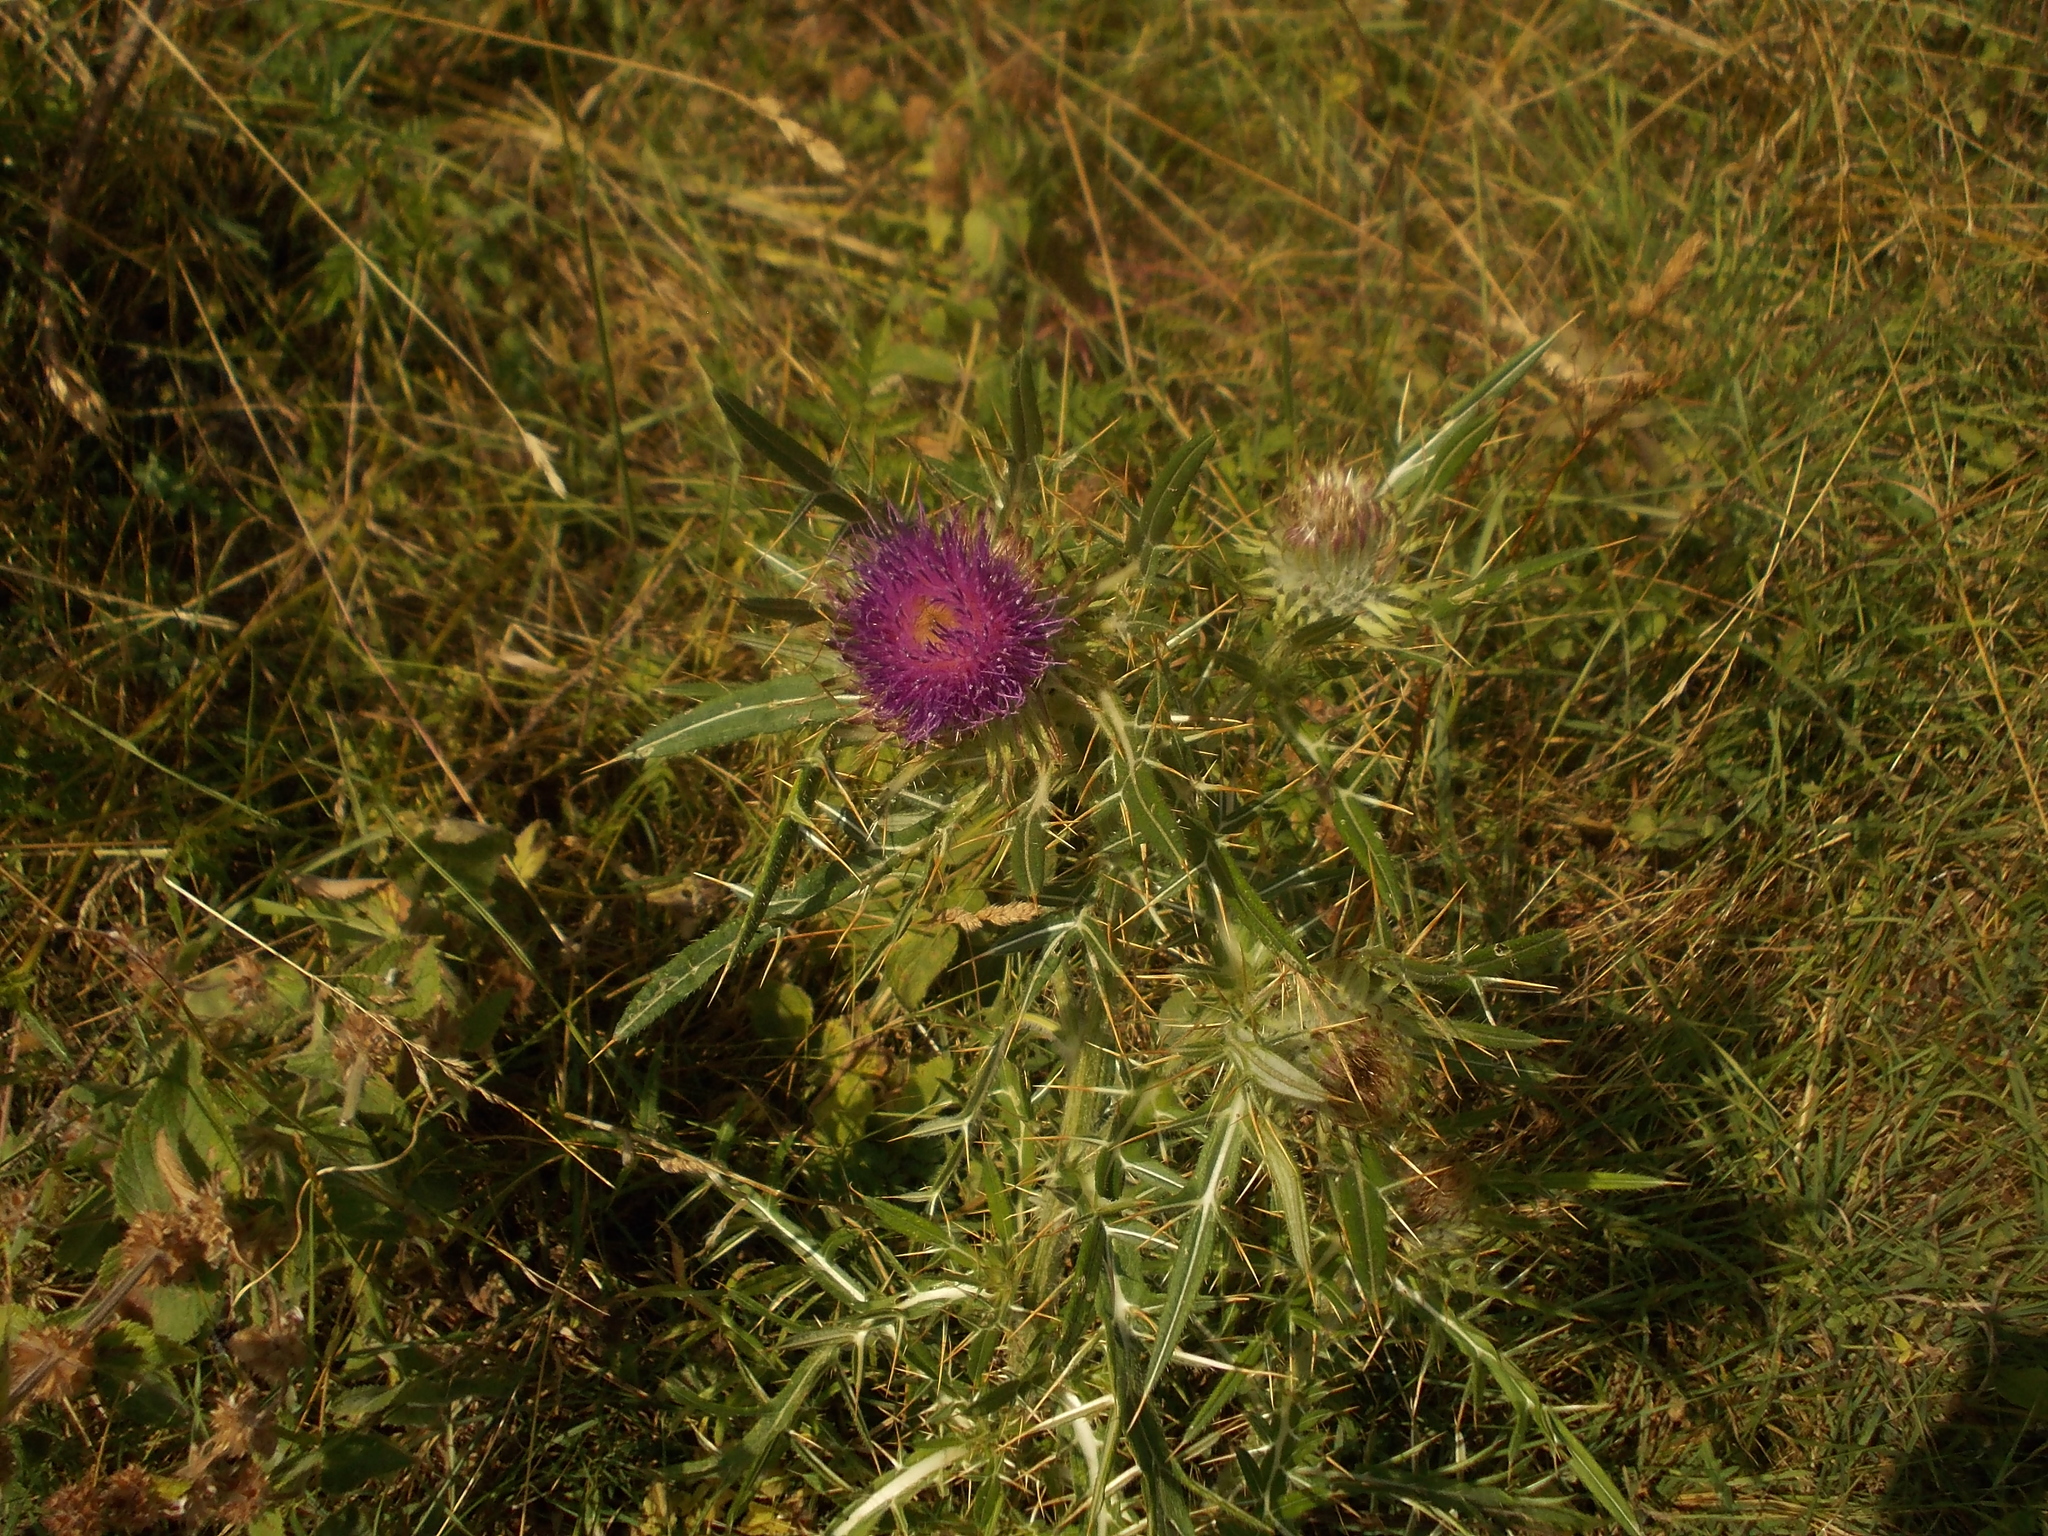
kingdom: Plantae
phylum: Tracheophyta
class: Magnoliopsida
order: Asterales
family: Asteraceae
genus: Lophiolepis
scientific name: Lophiolepis ligularis
